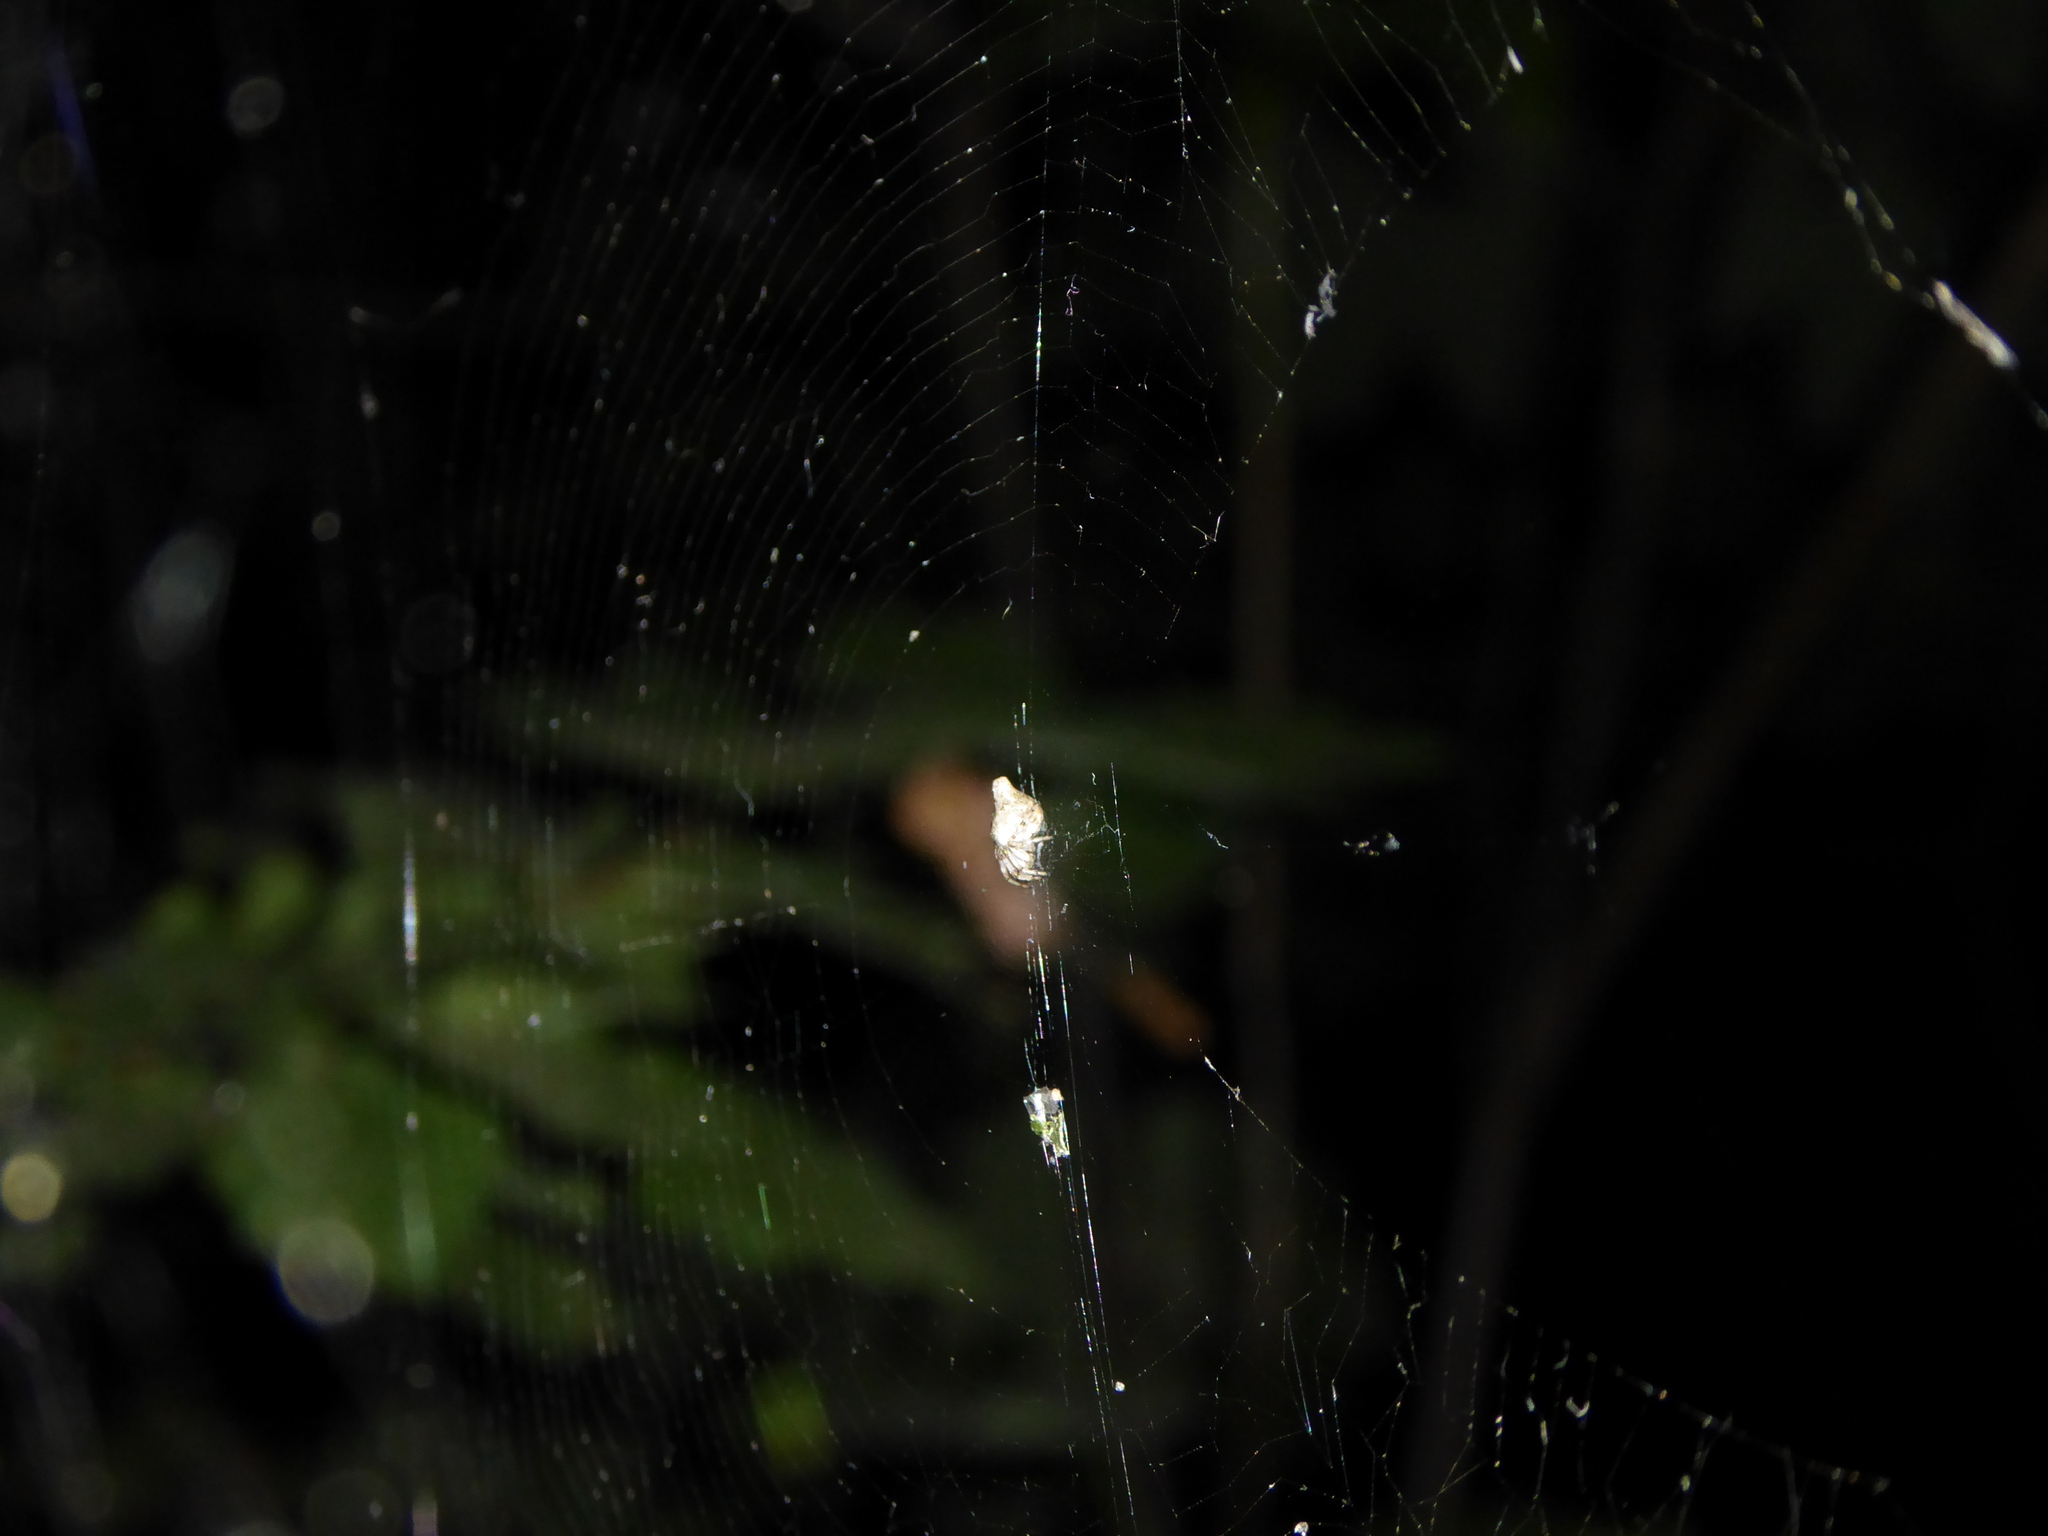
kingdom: Animalia
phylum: Arthropoda
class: Arachnida
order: Araneae
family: Araneidae
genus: Cyclosa
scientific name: Cyclosa conica
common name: Conical trashline orbweaver
